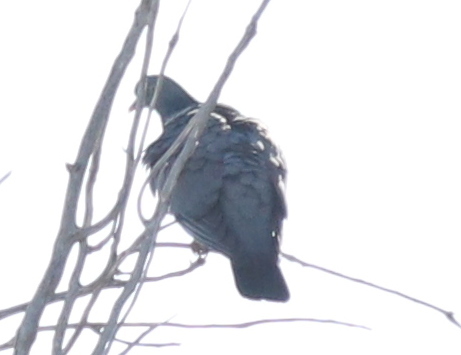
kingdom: Animalia
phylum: Chordata
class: Aves
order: Columbiformes
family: Columbidae
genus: Columba
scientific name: Columba palumbus
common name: Common wood pigeon
